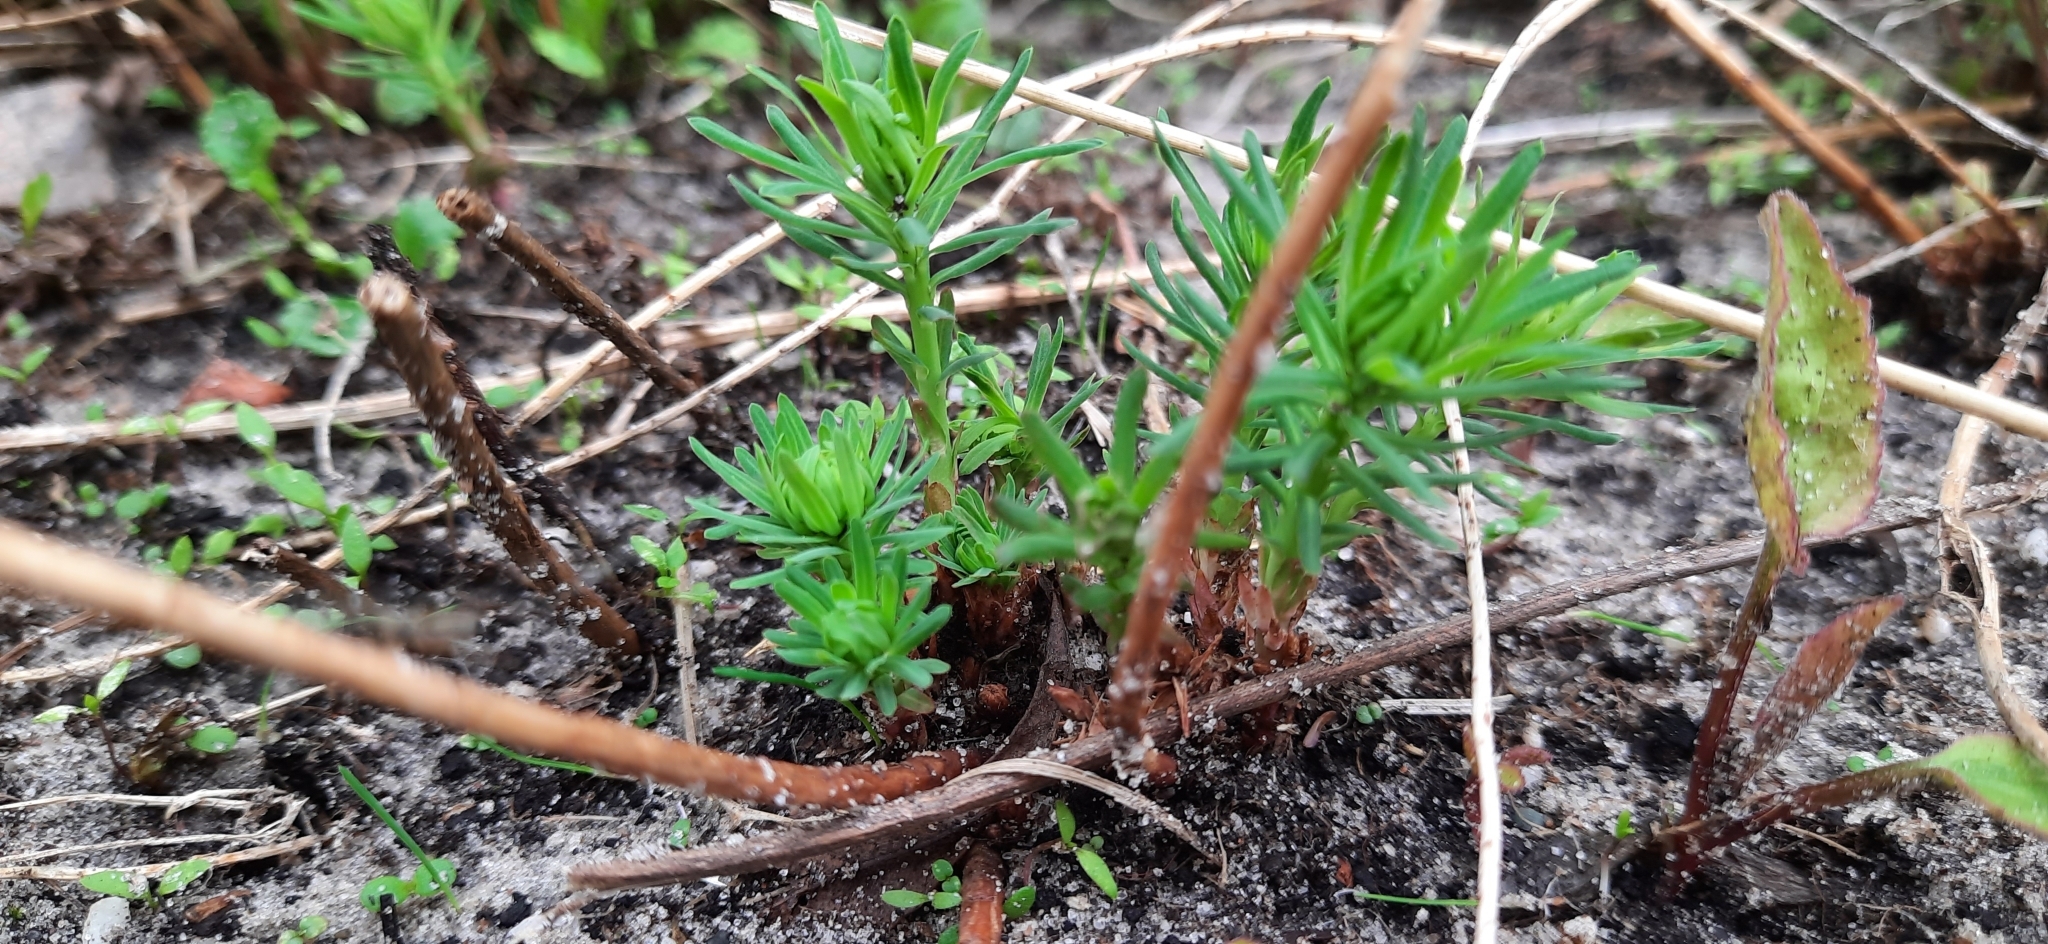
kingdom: Plantae
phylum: Tracheophyta
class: Magnoliopsida
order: Malpighiales
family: Euphorbiaceae
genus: Euphorbia
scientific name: Euphorbia cyparissias
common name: Cypress spurge
